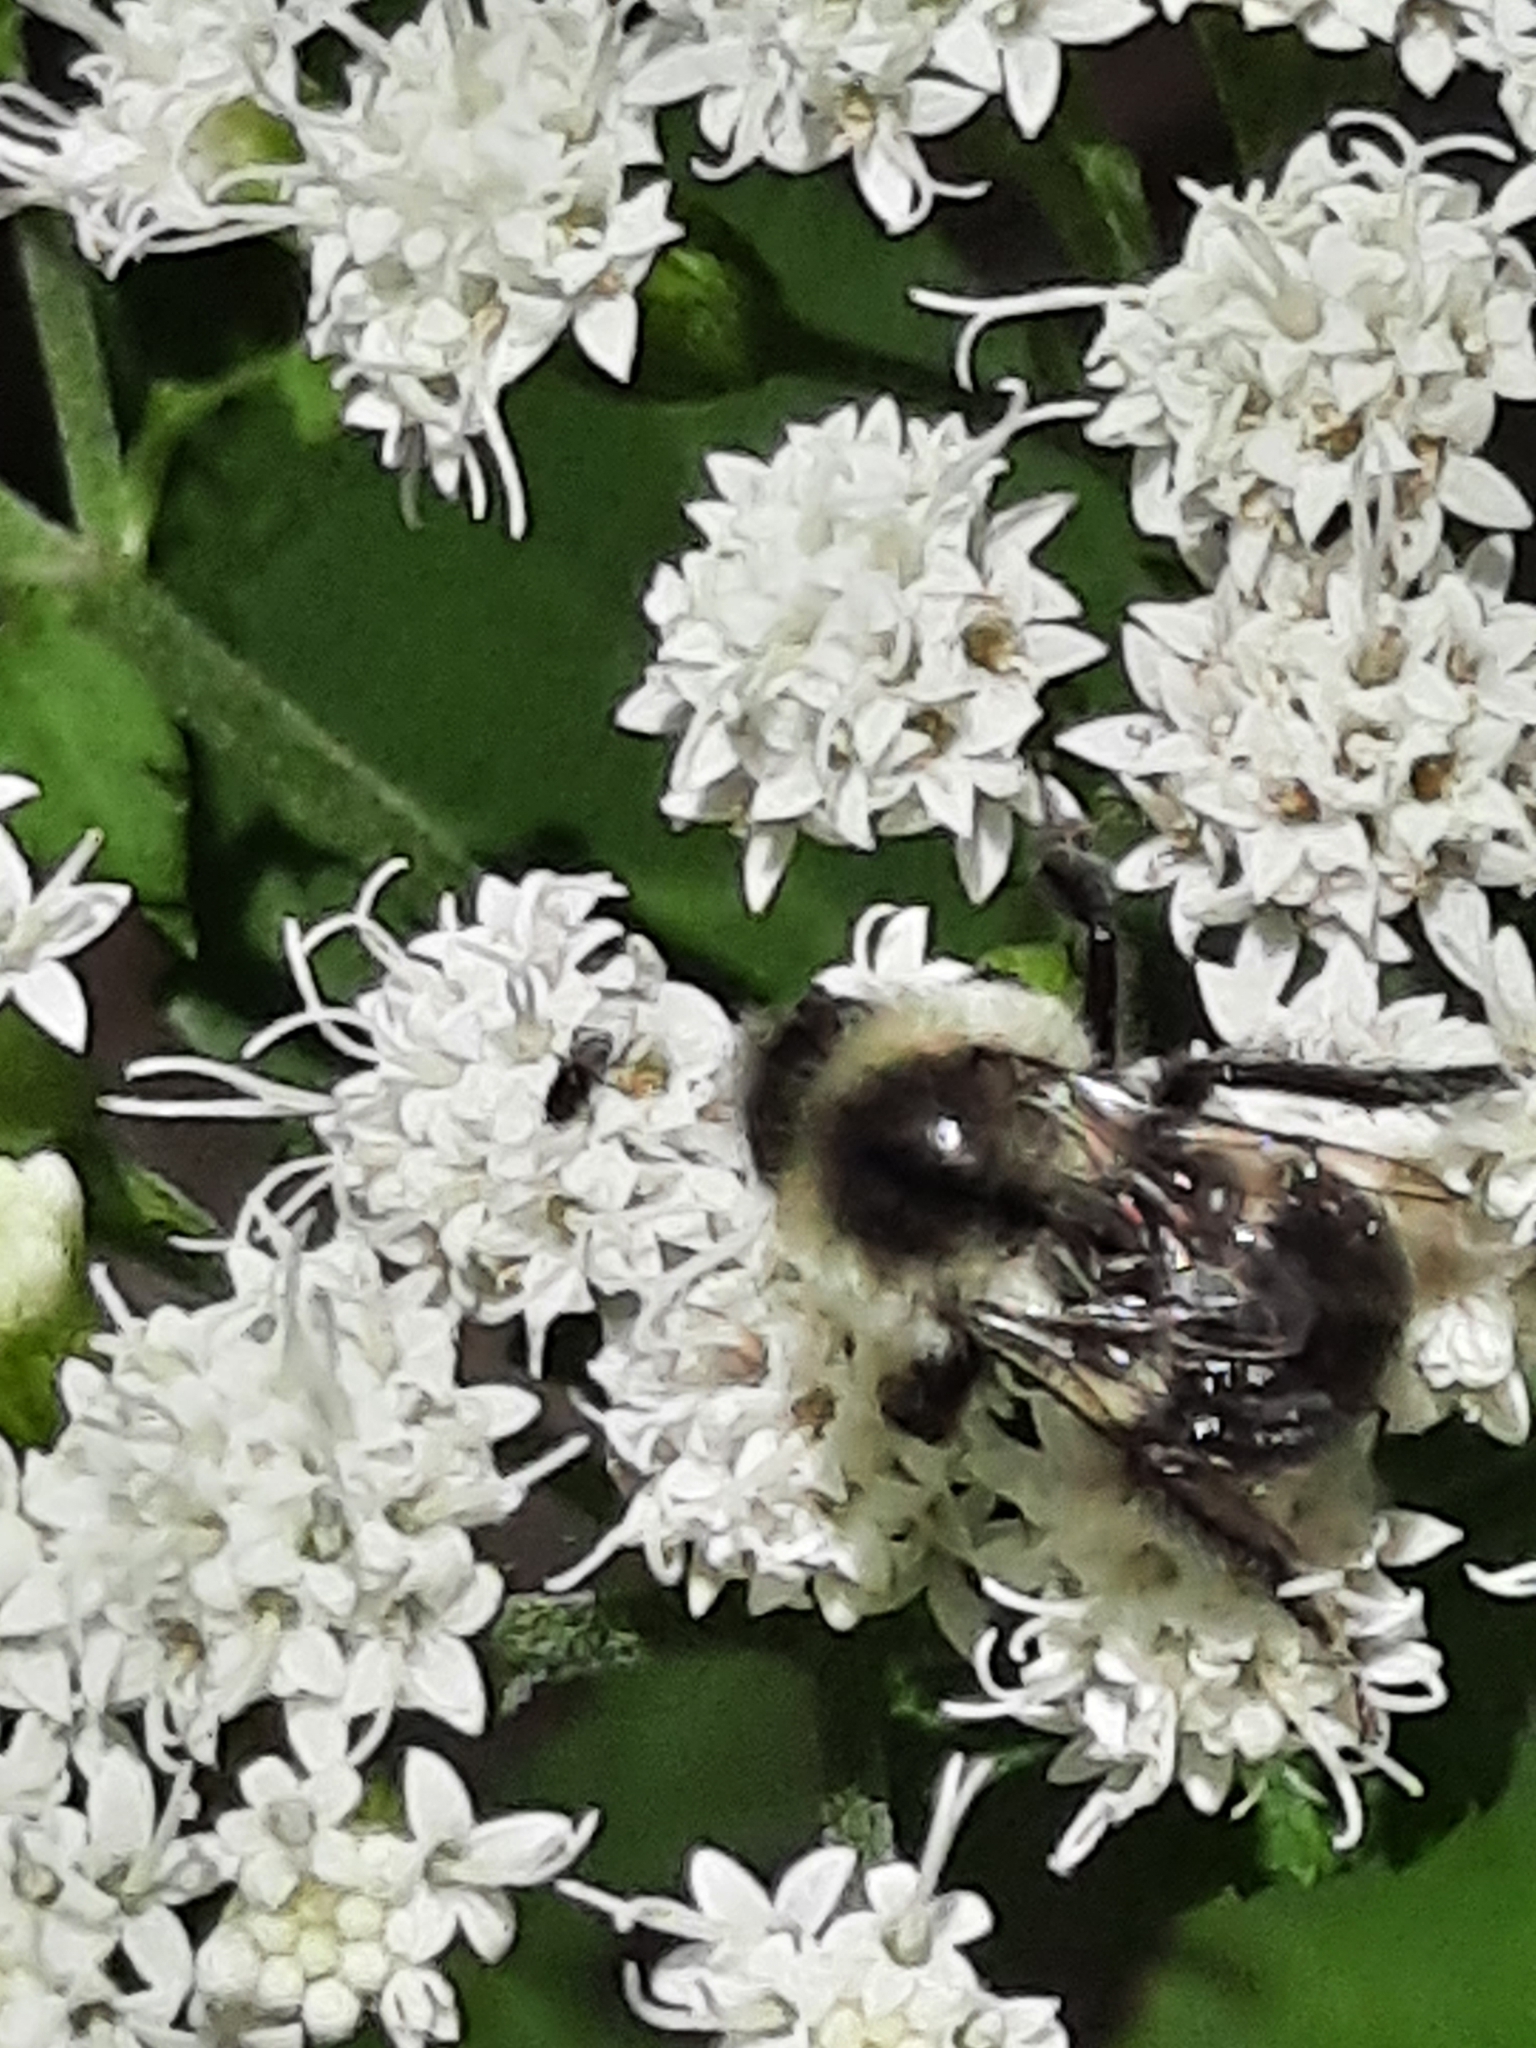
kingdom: Animalia
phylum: Arthropoda
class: Insecta
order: Hymenoptera
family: Apidae
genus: Bombus
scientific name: Bombus impatiens
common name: Common eastern bumble bee
